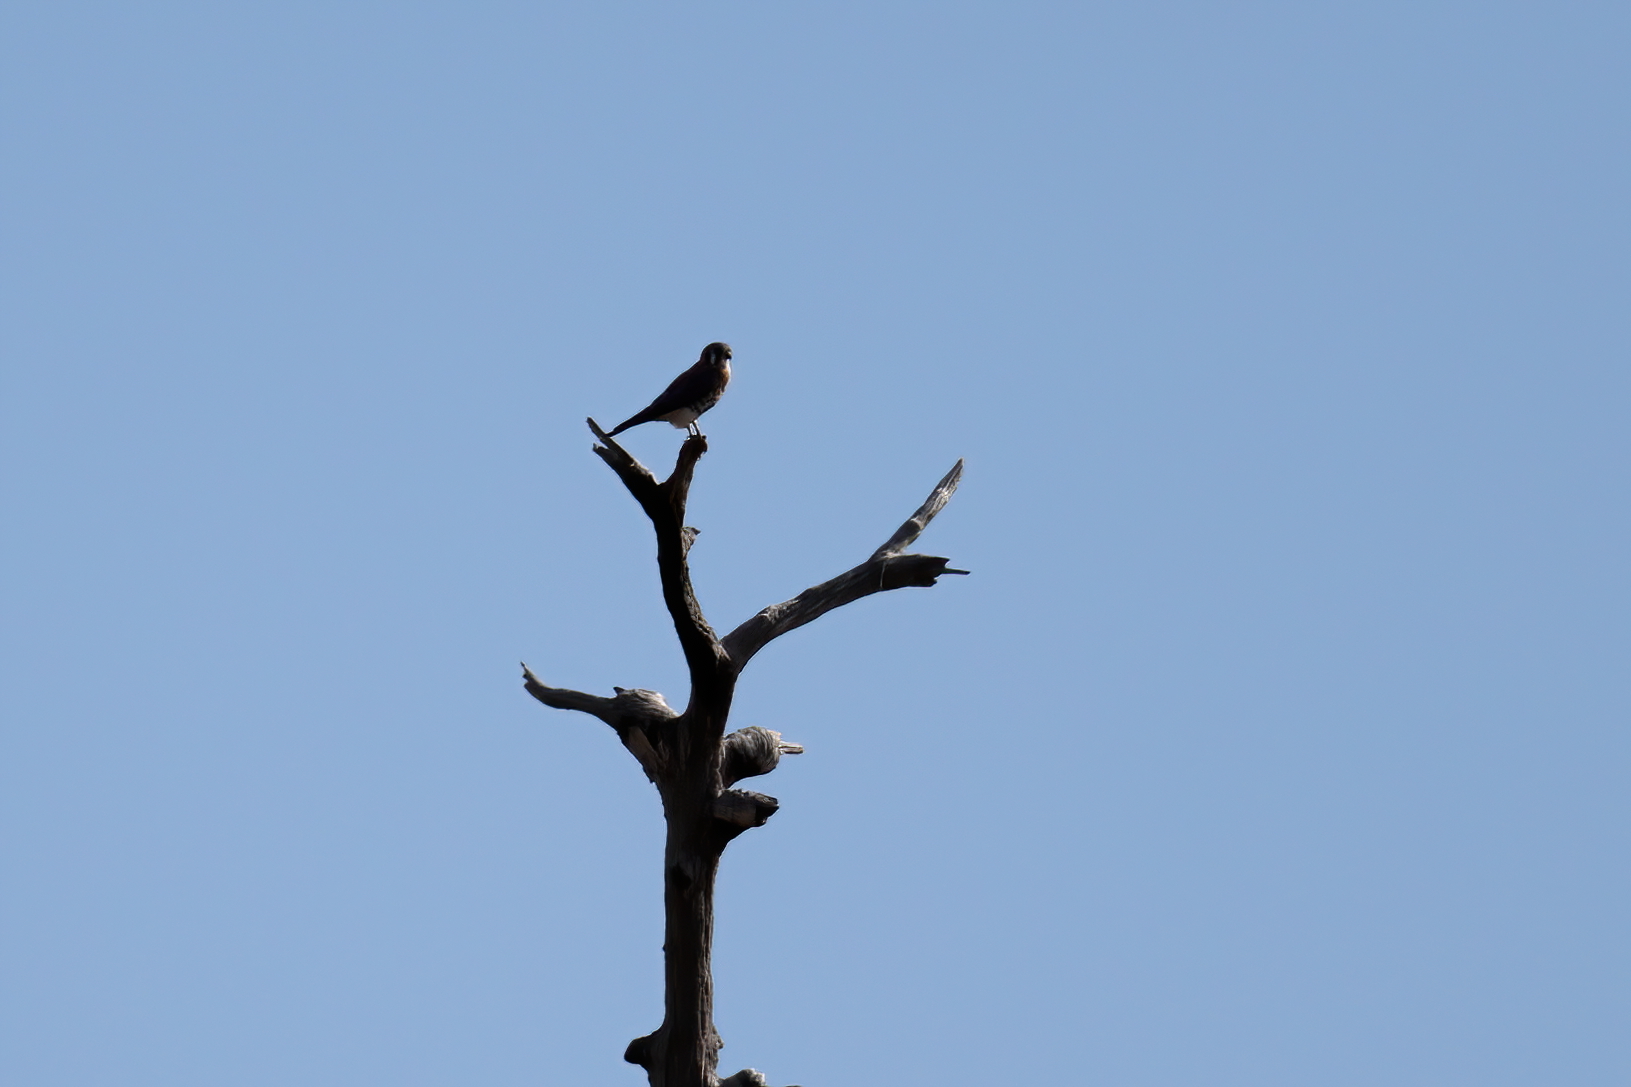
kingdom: Animalia
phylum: Chordata
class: Aves
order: Falconiformes
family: Falconidae
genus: Falco
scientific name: Falco sparverius
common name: American kestrel
